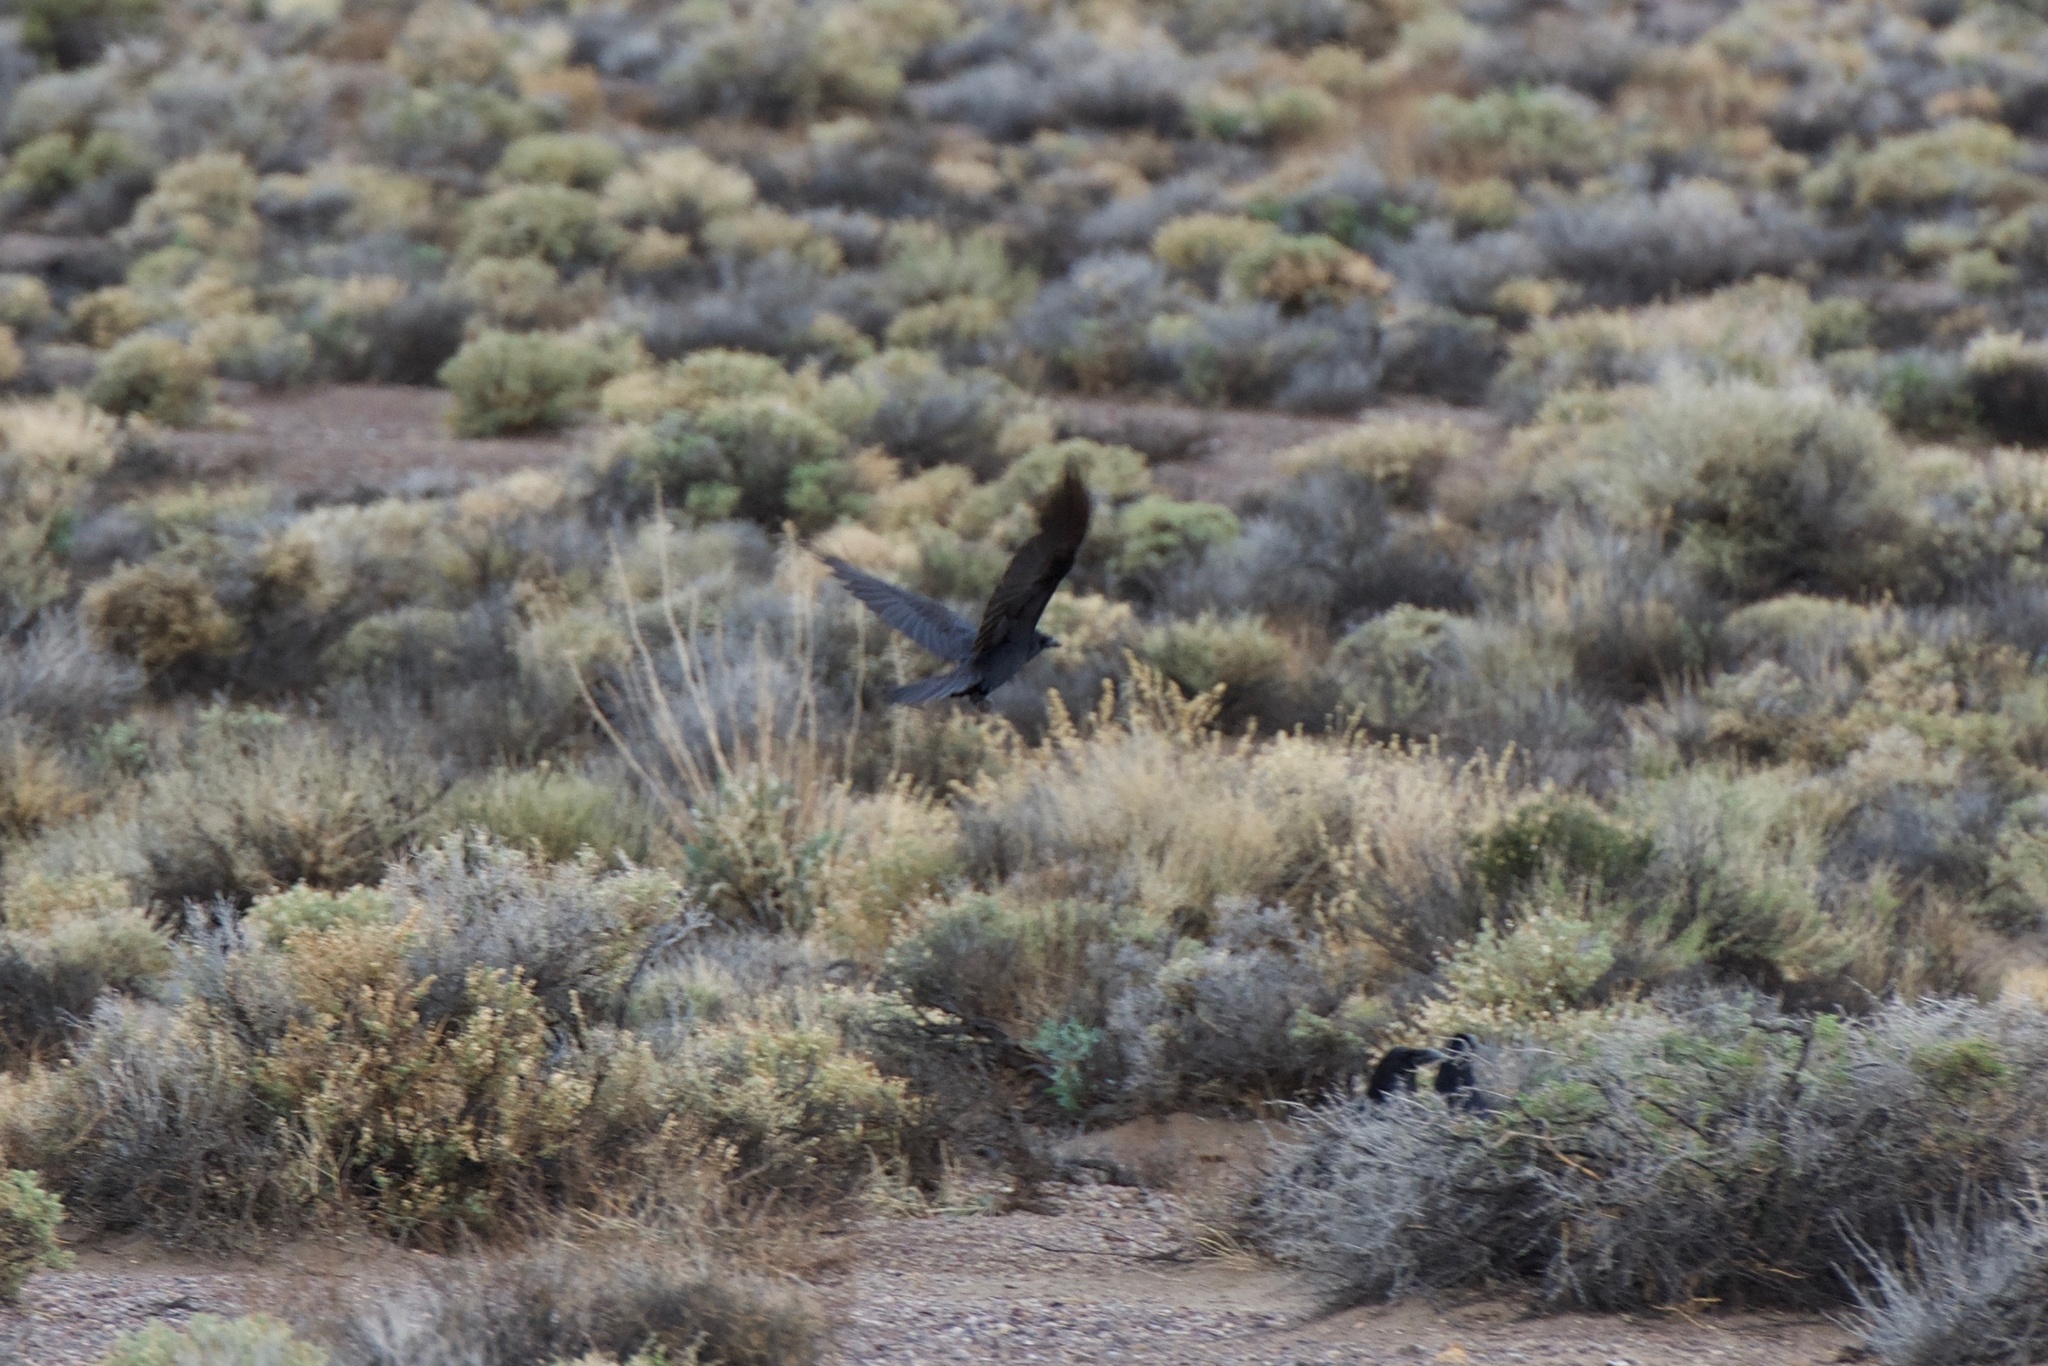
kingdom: Animalia
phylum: Chordata
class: Aves
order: Passeriformes
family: Corvidae
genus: Corvus
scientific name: Corvus corax
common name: Common raven
